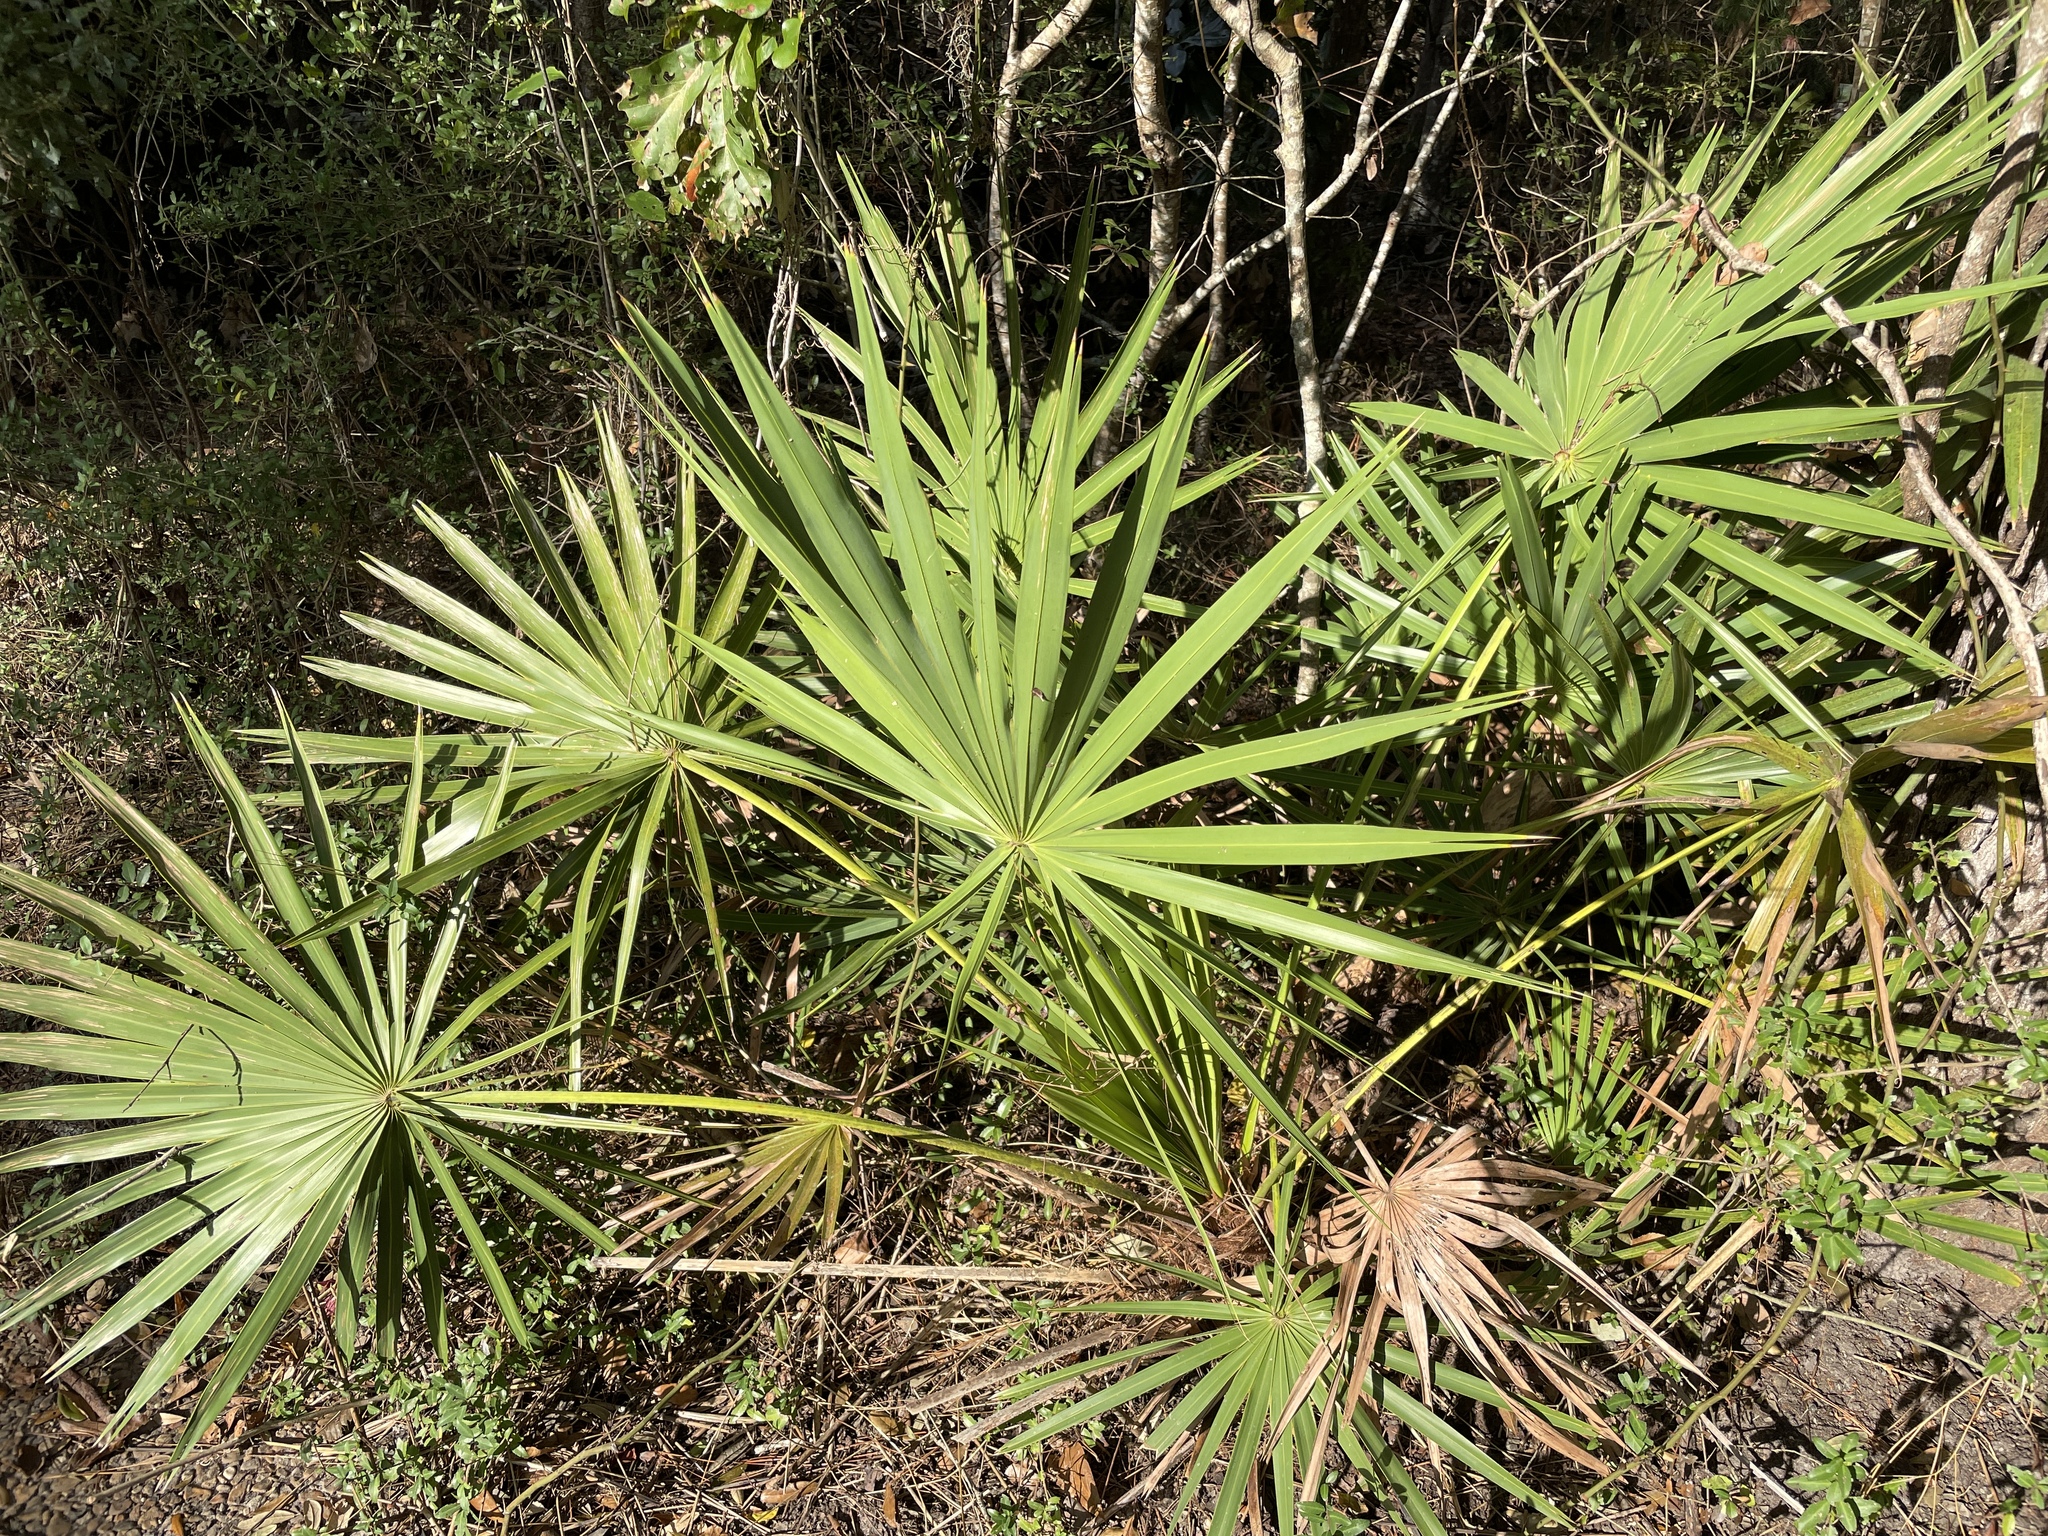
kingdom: Plantae
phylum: Tracheophyta
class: Liliopsida
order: Arecales
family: Arecaceae
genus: Serenoa
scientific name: Serenoa repens
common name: Saw-palmetto
